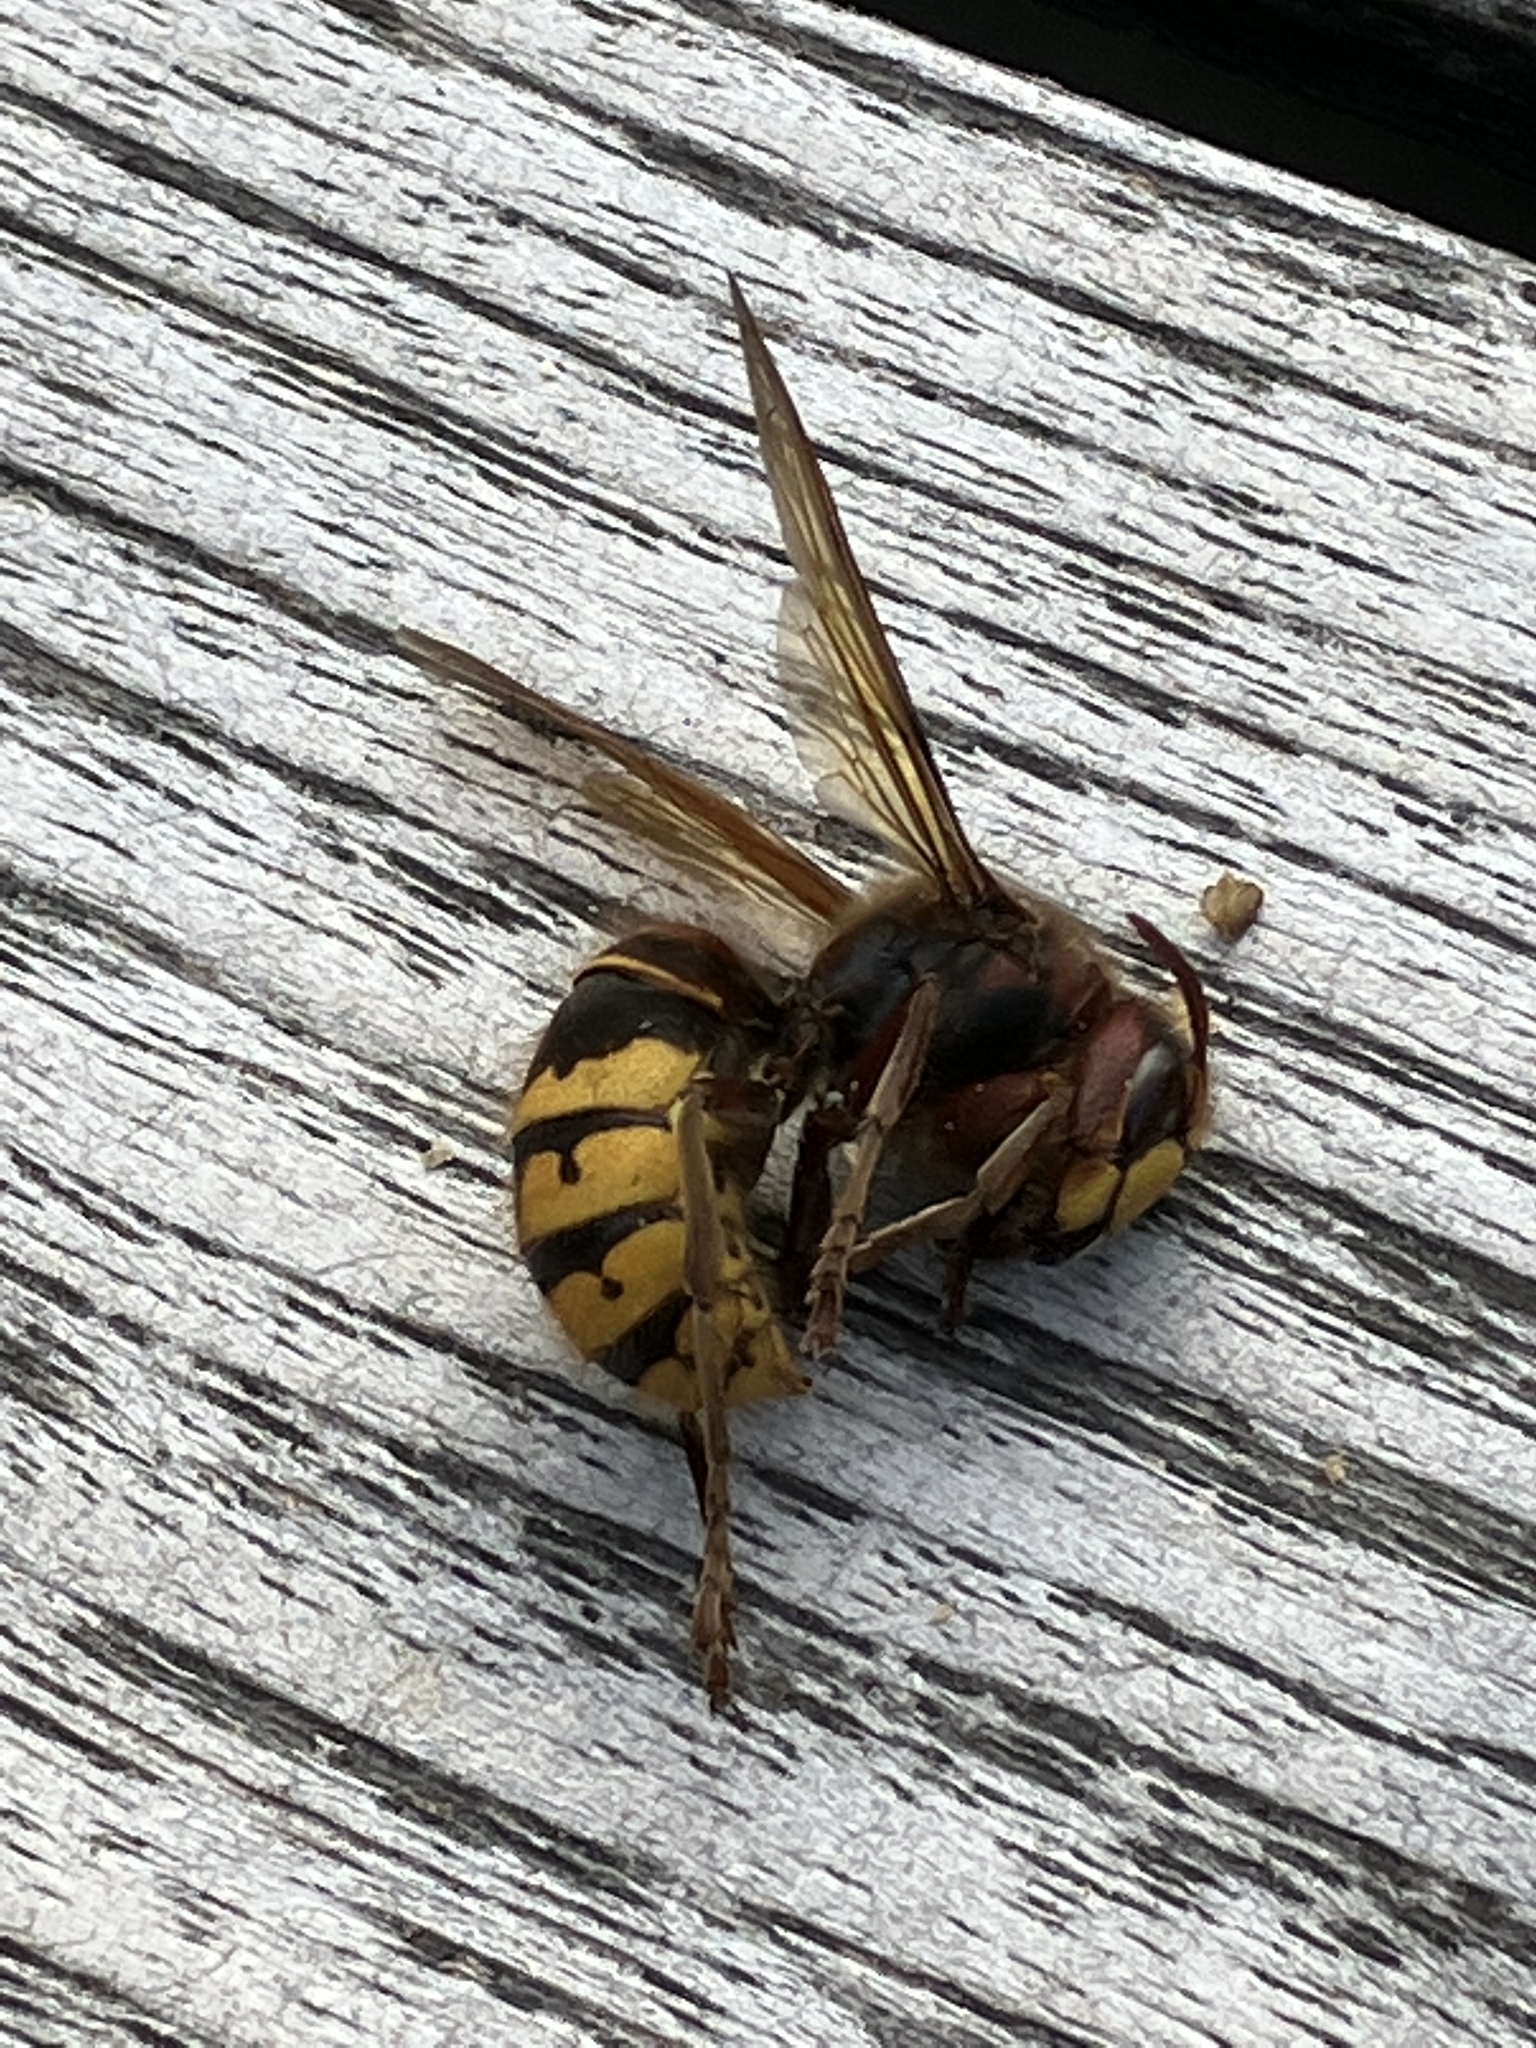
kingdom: Animalia
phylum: Arthropoda
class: Insecta
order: Hymenoptera
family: Vespidae
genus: Vespa
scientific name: Vespa crabro
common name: Hornet
